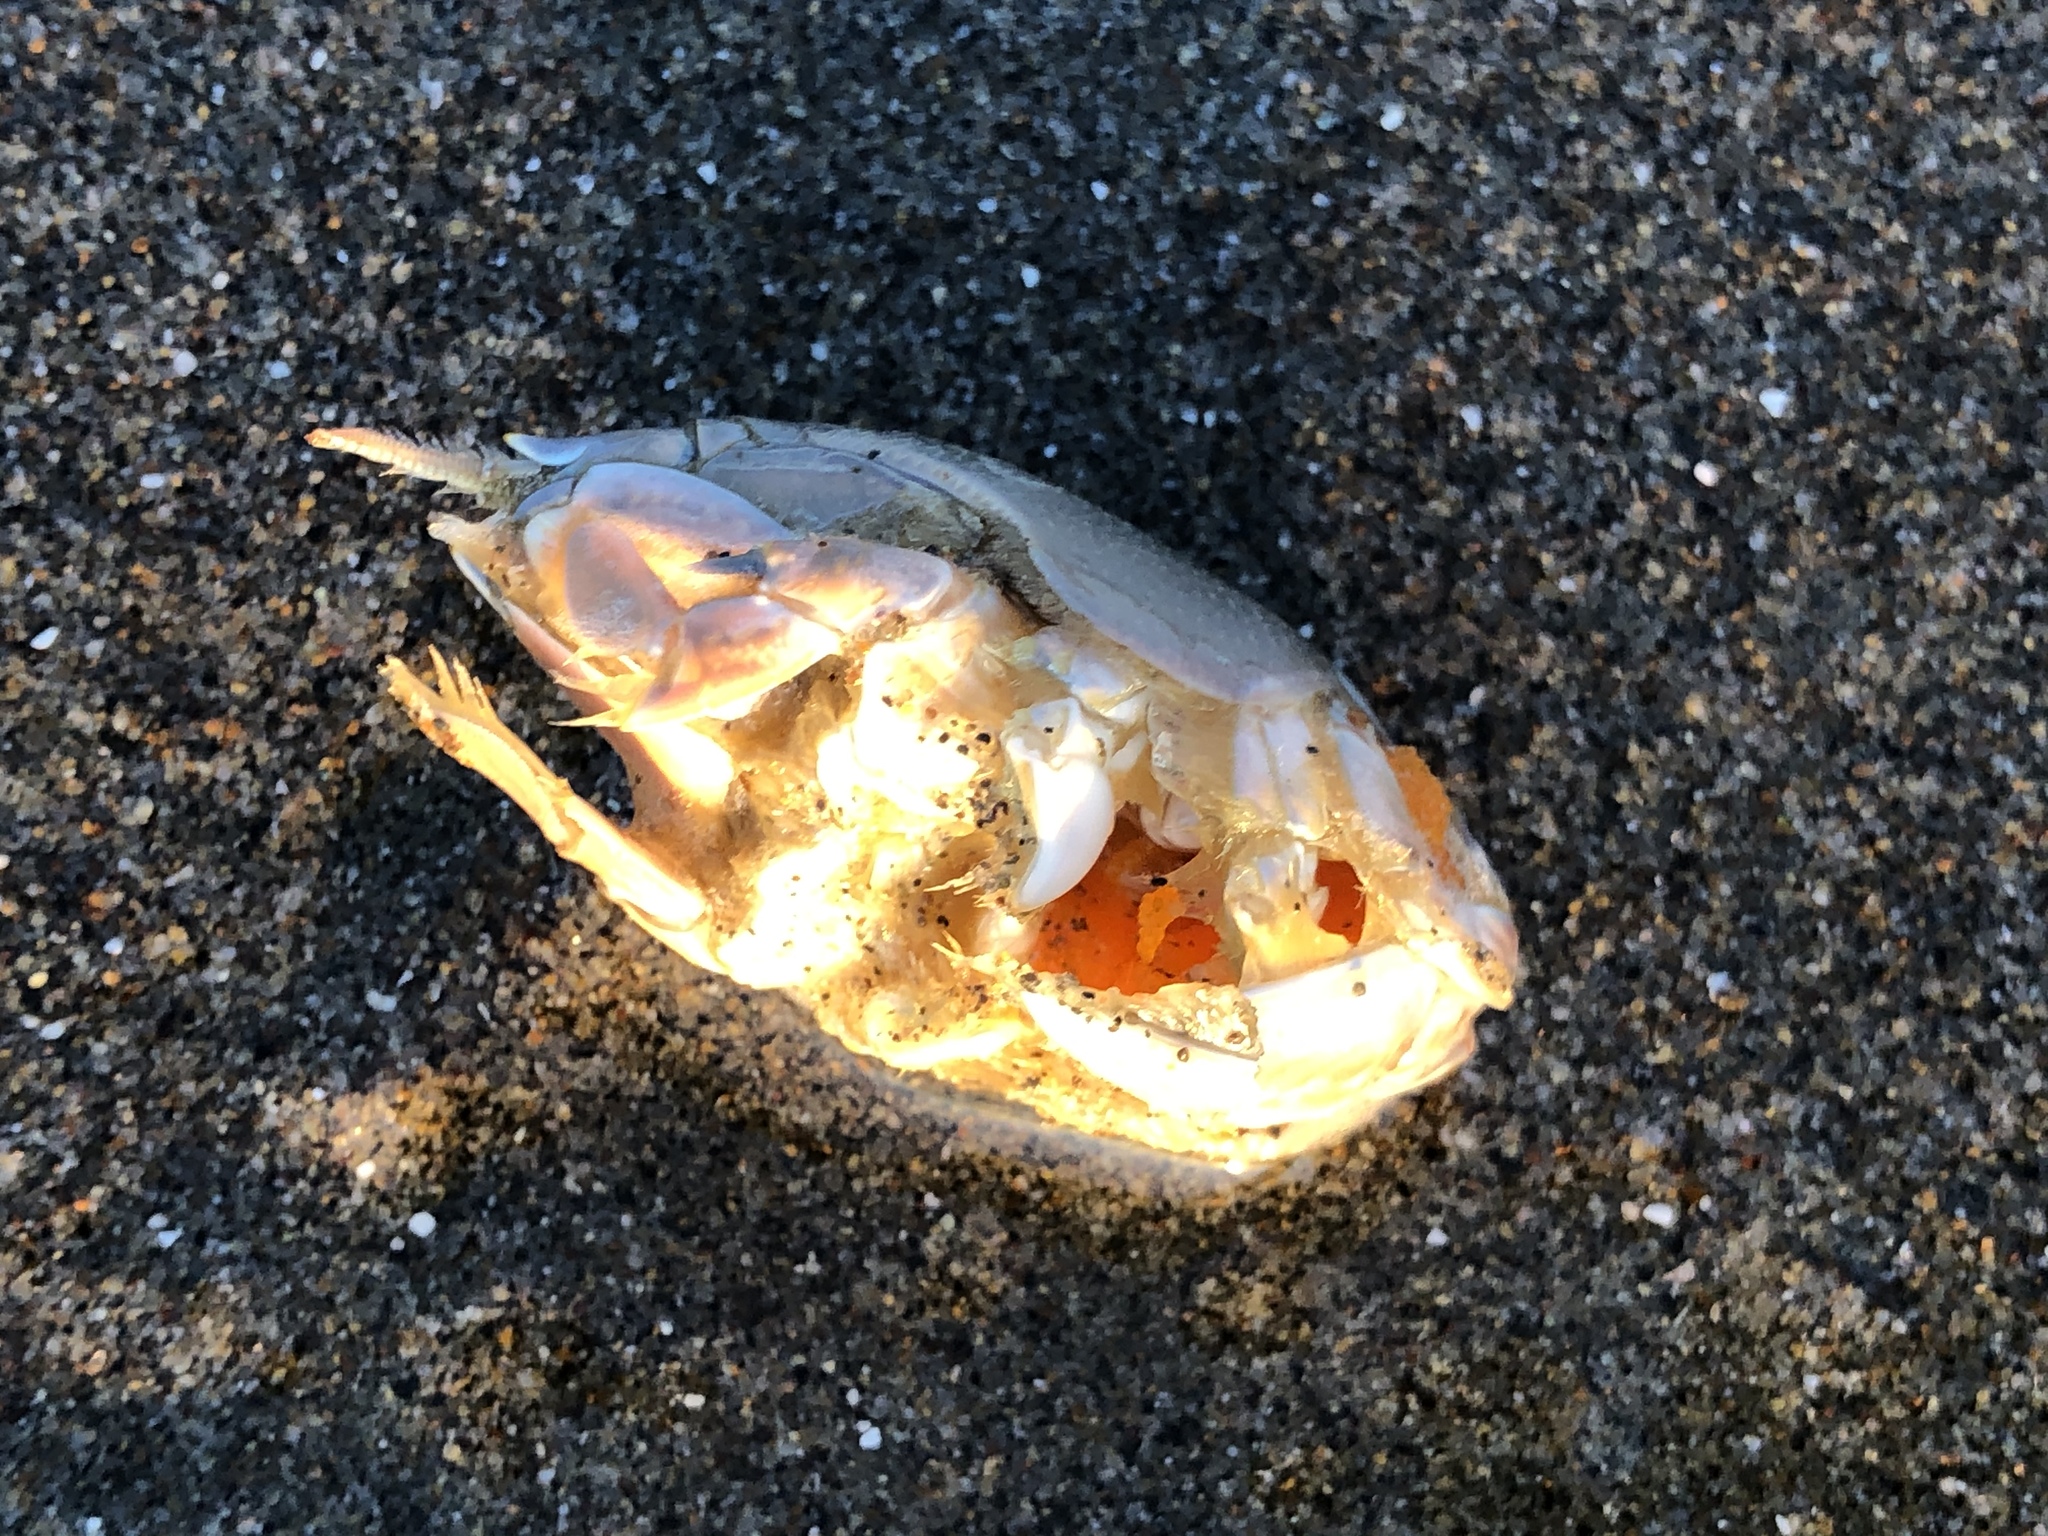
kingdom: Animalia
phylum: Arthropoda
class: Malacostraca
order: Decapoda
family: Hippidae
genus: Emerita
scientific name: Emerita analoga
